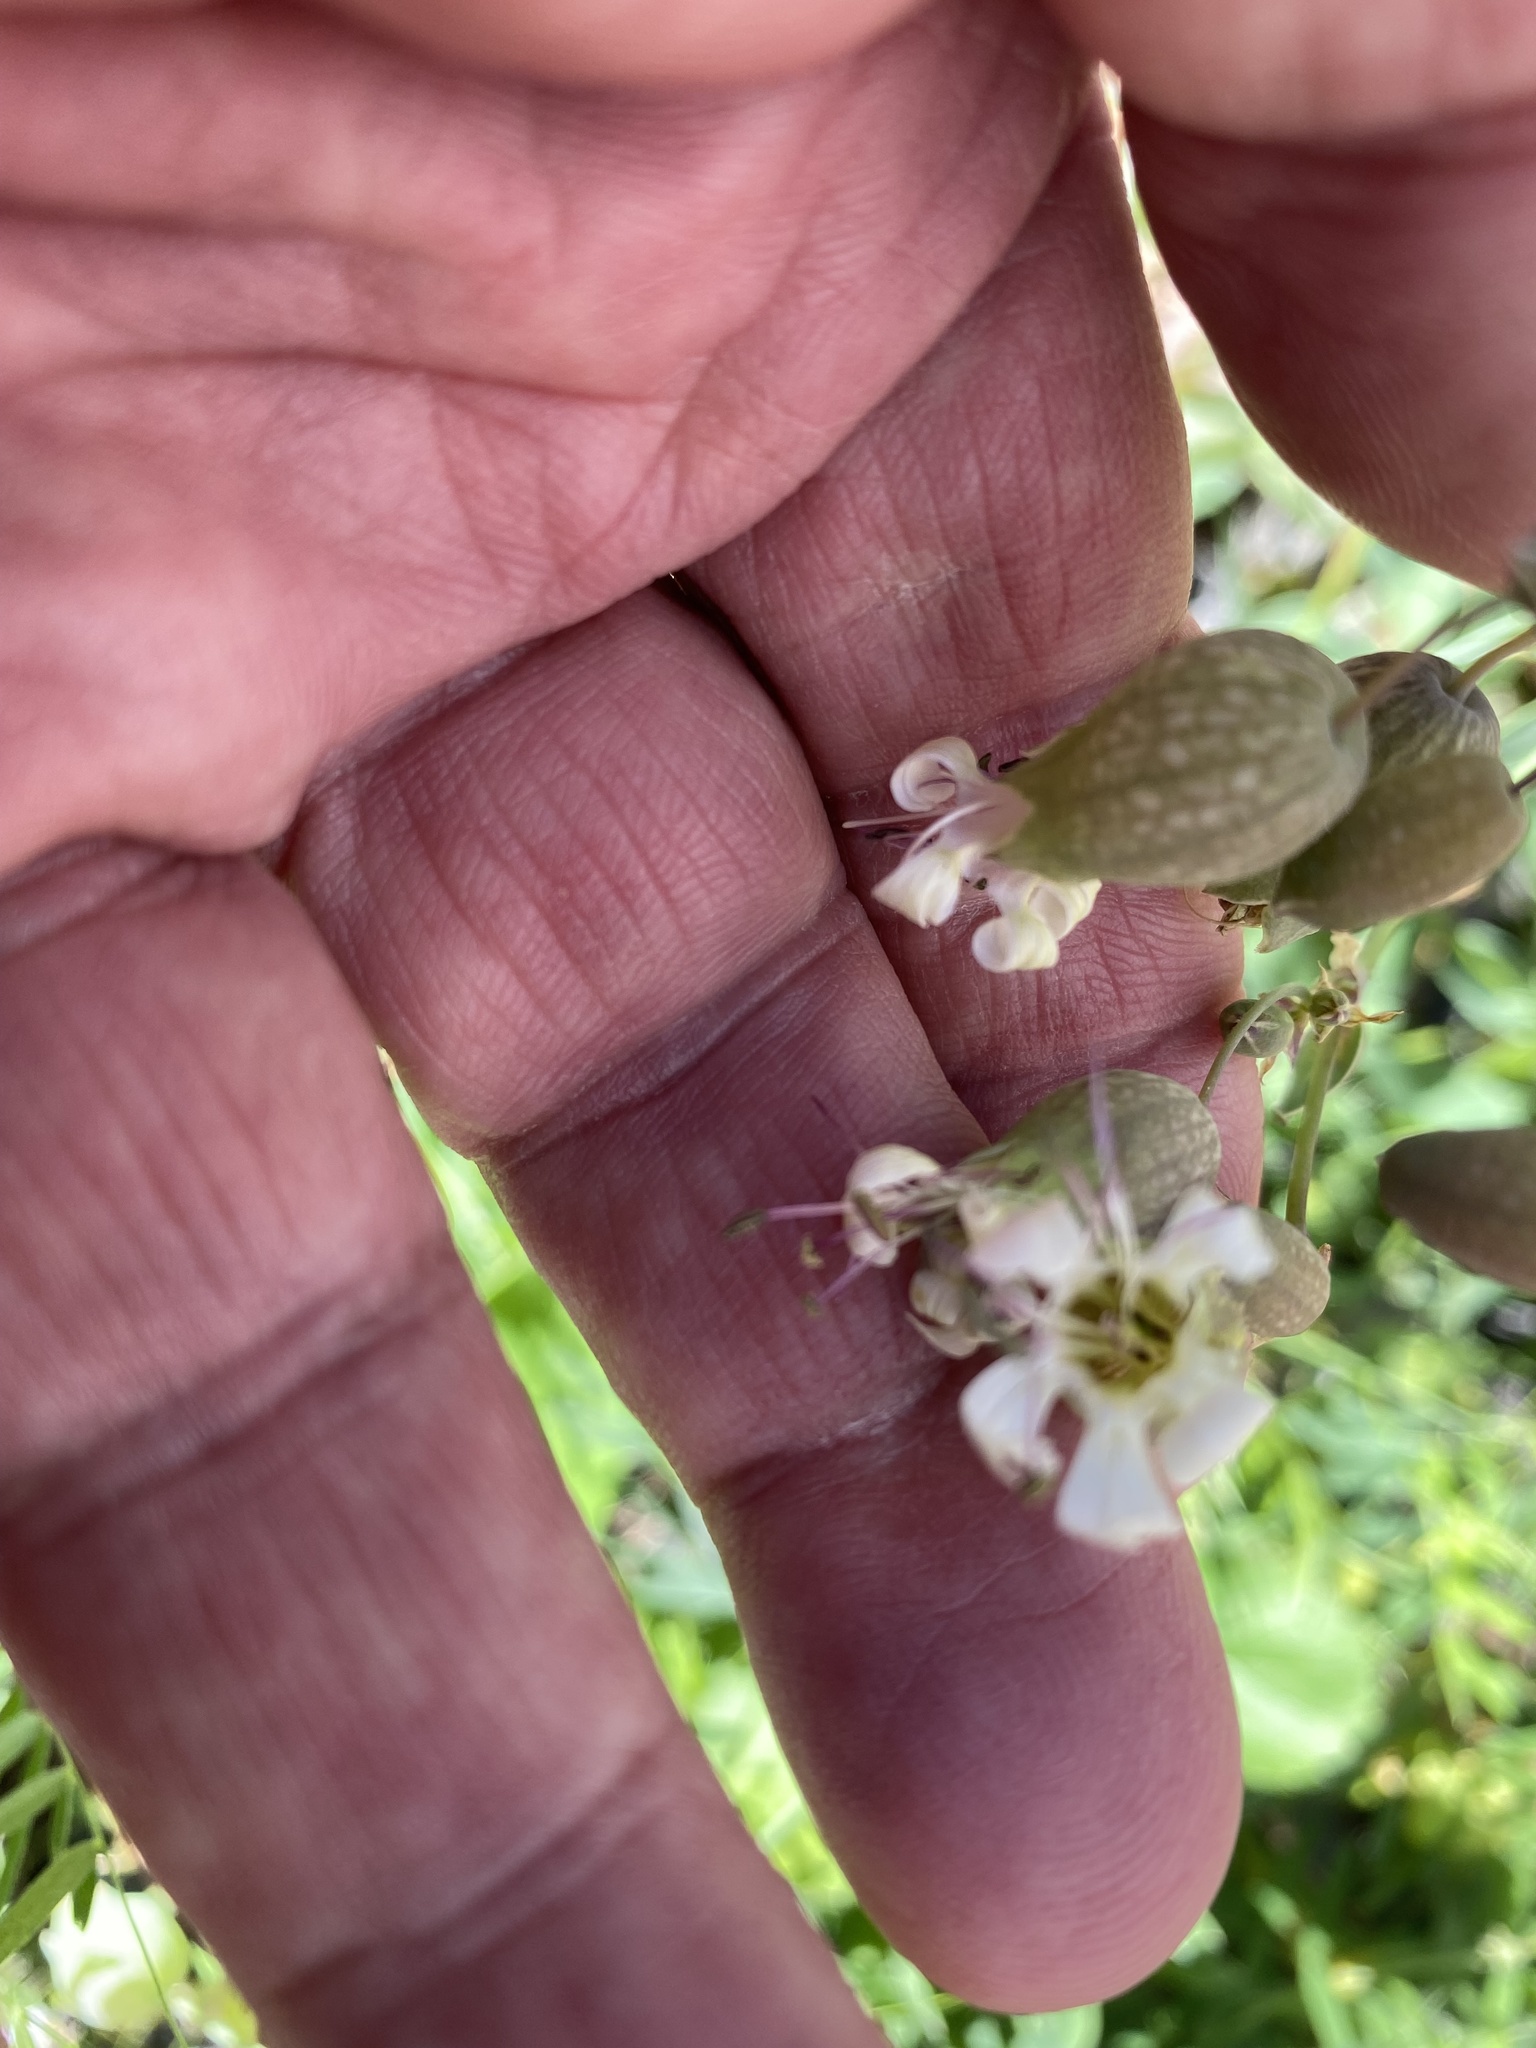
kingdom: Plantae
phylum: Tracheophyta
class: Magnoliopsida
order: Caryophyllales
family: Caryophyllaceae
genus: Silene
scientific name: Silene vulgaris
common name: Bladder campion
